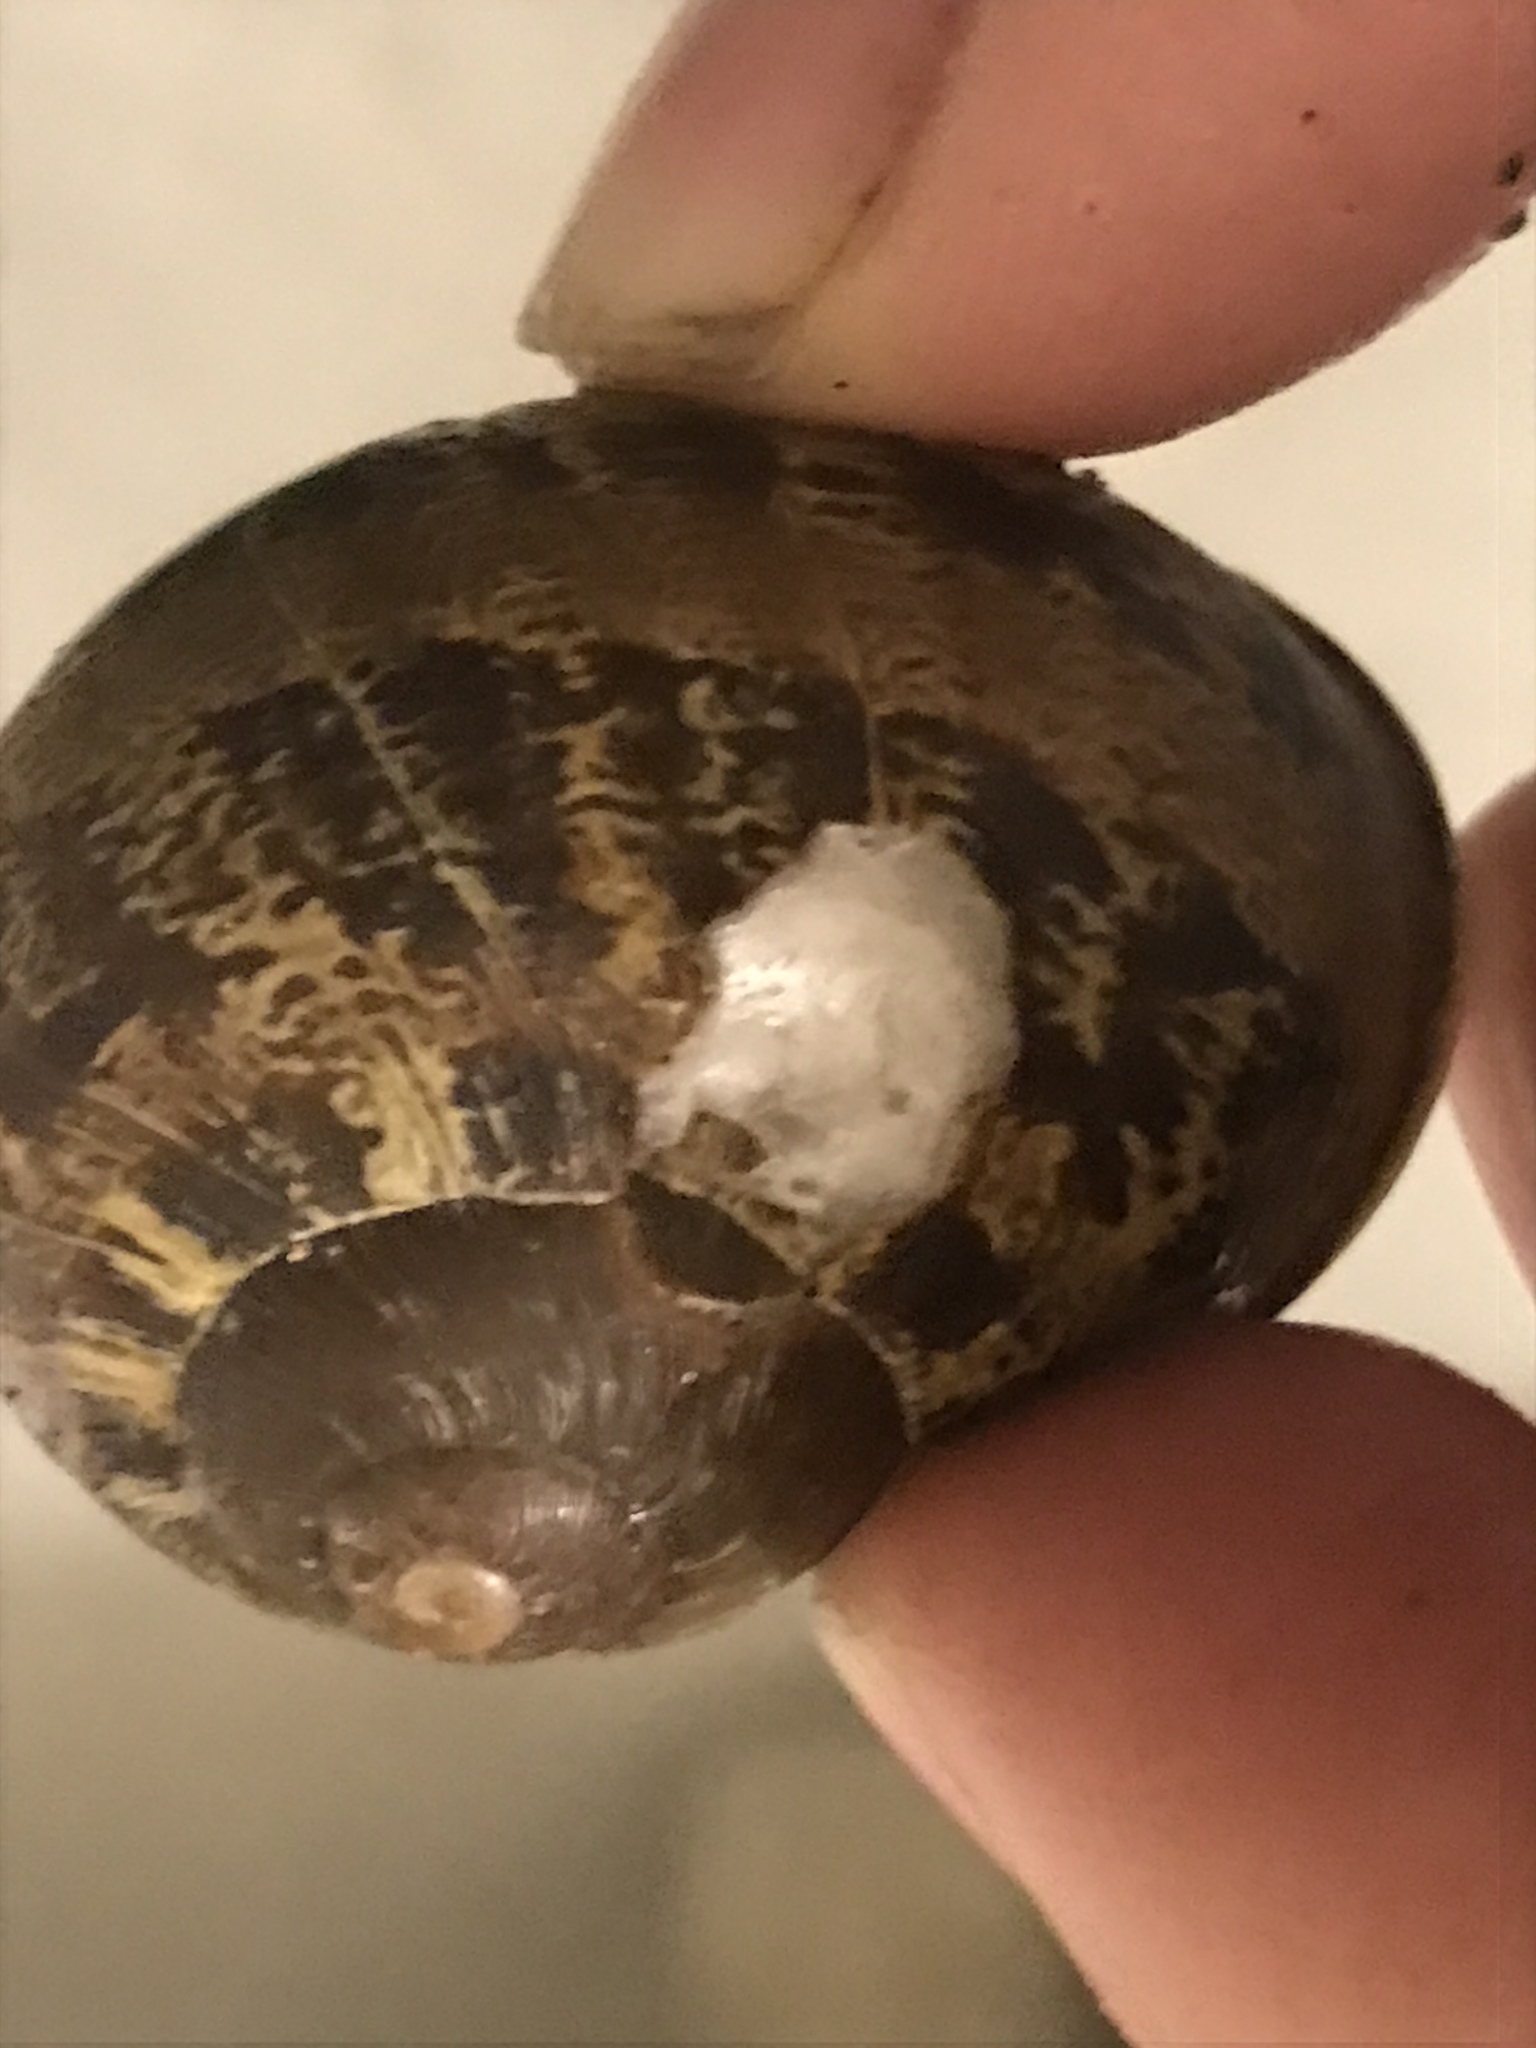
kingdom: Animalia
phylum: Mollusca
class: Gastropoda
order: Stylommatophora
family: Helicidae
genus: Cornu
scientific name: Cornu aspersum
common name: Brown garden snail
